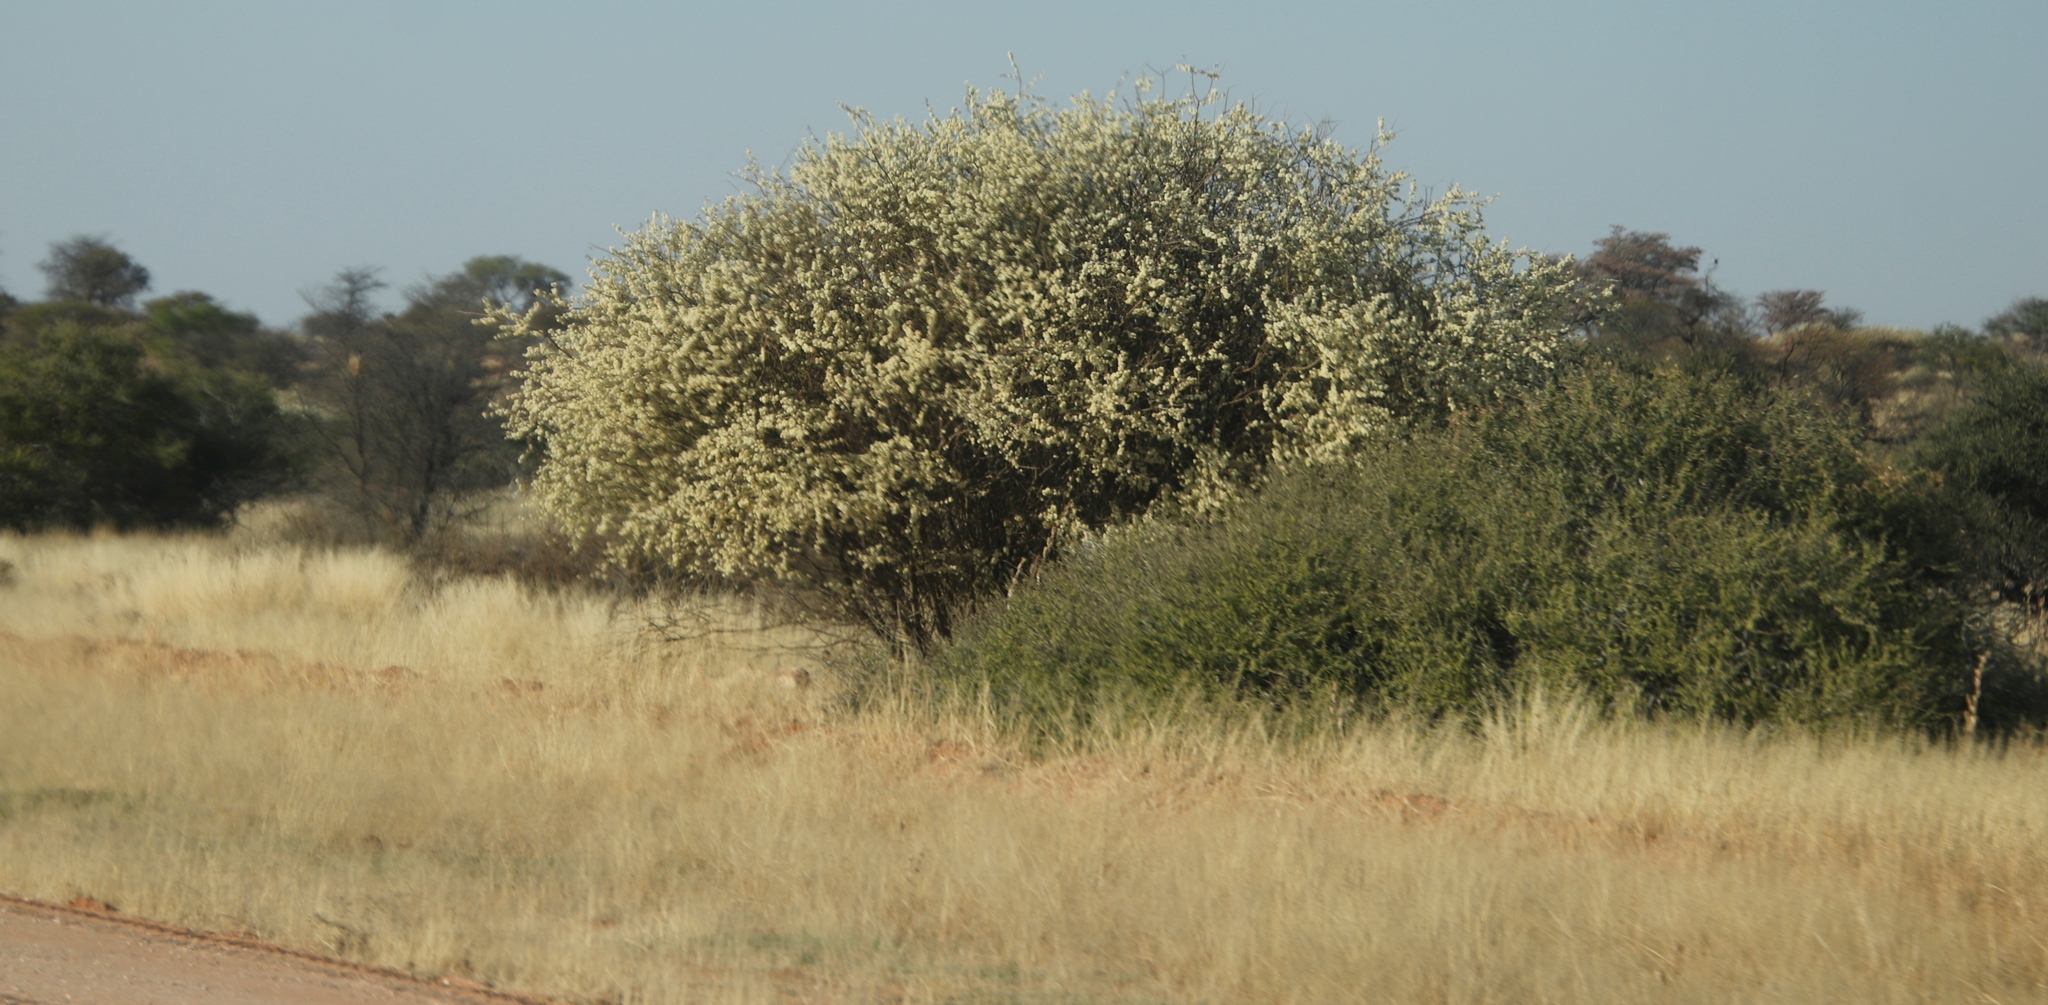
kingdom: Plantae
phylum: Tracheophyta
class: Magnoliopsida
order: Fabales
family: Fabaceae
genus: Senegalia
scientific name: Senegalia mellifera
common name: Hookthorn
